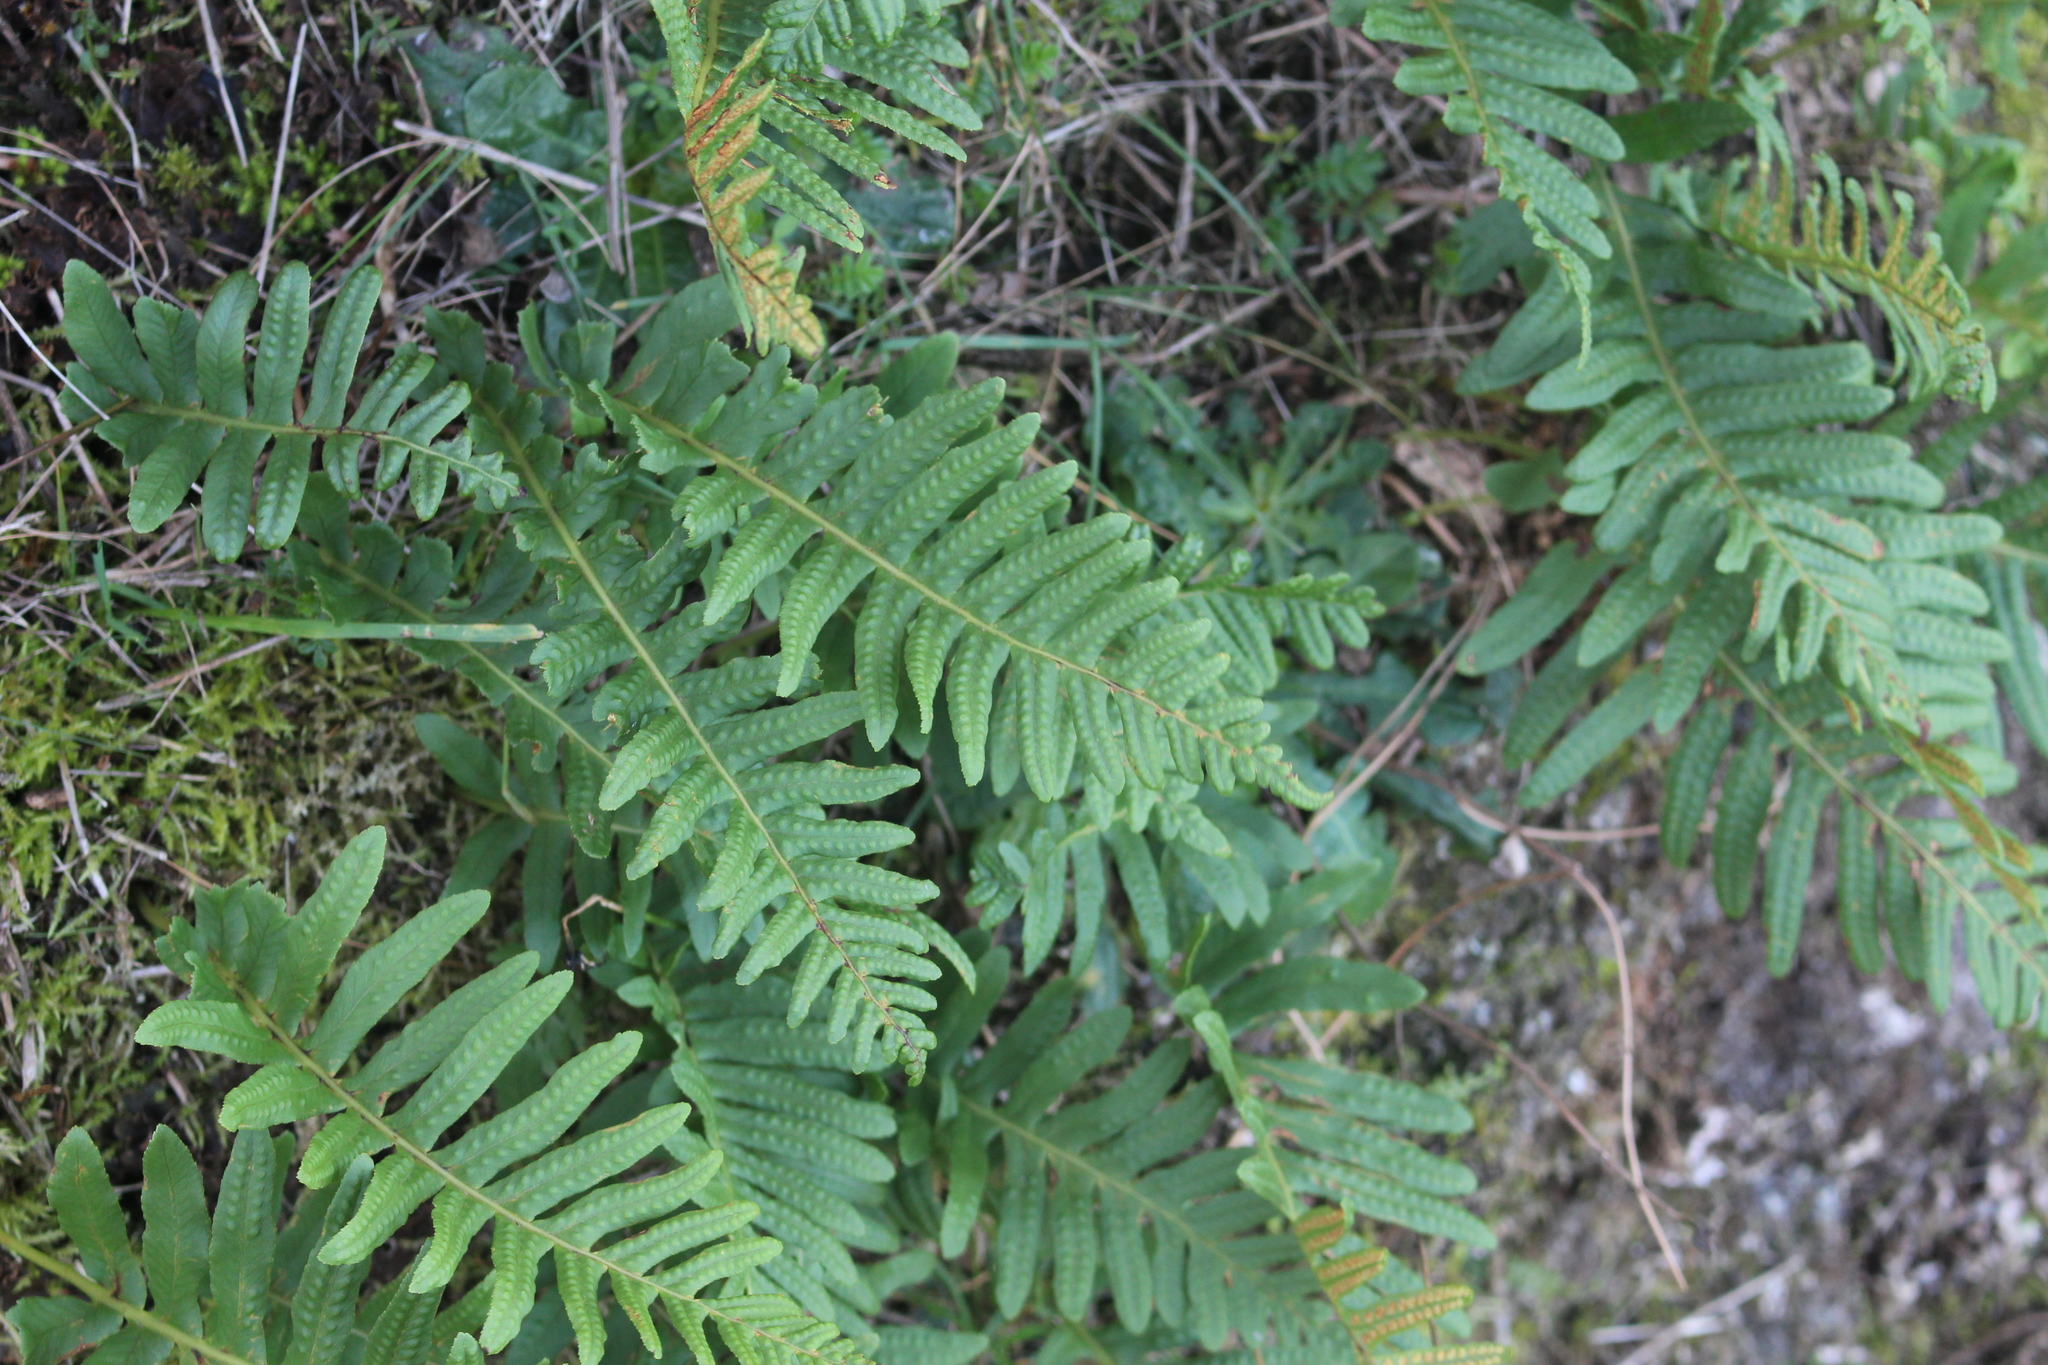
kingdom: Plantae
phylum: Tracheophyta
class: Polypodiopsida
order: Polypodiales
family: Polypodiaceae
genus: Polypodium
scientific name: Polypodium vulgare
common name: Common polypody
